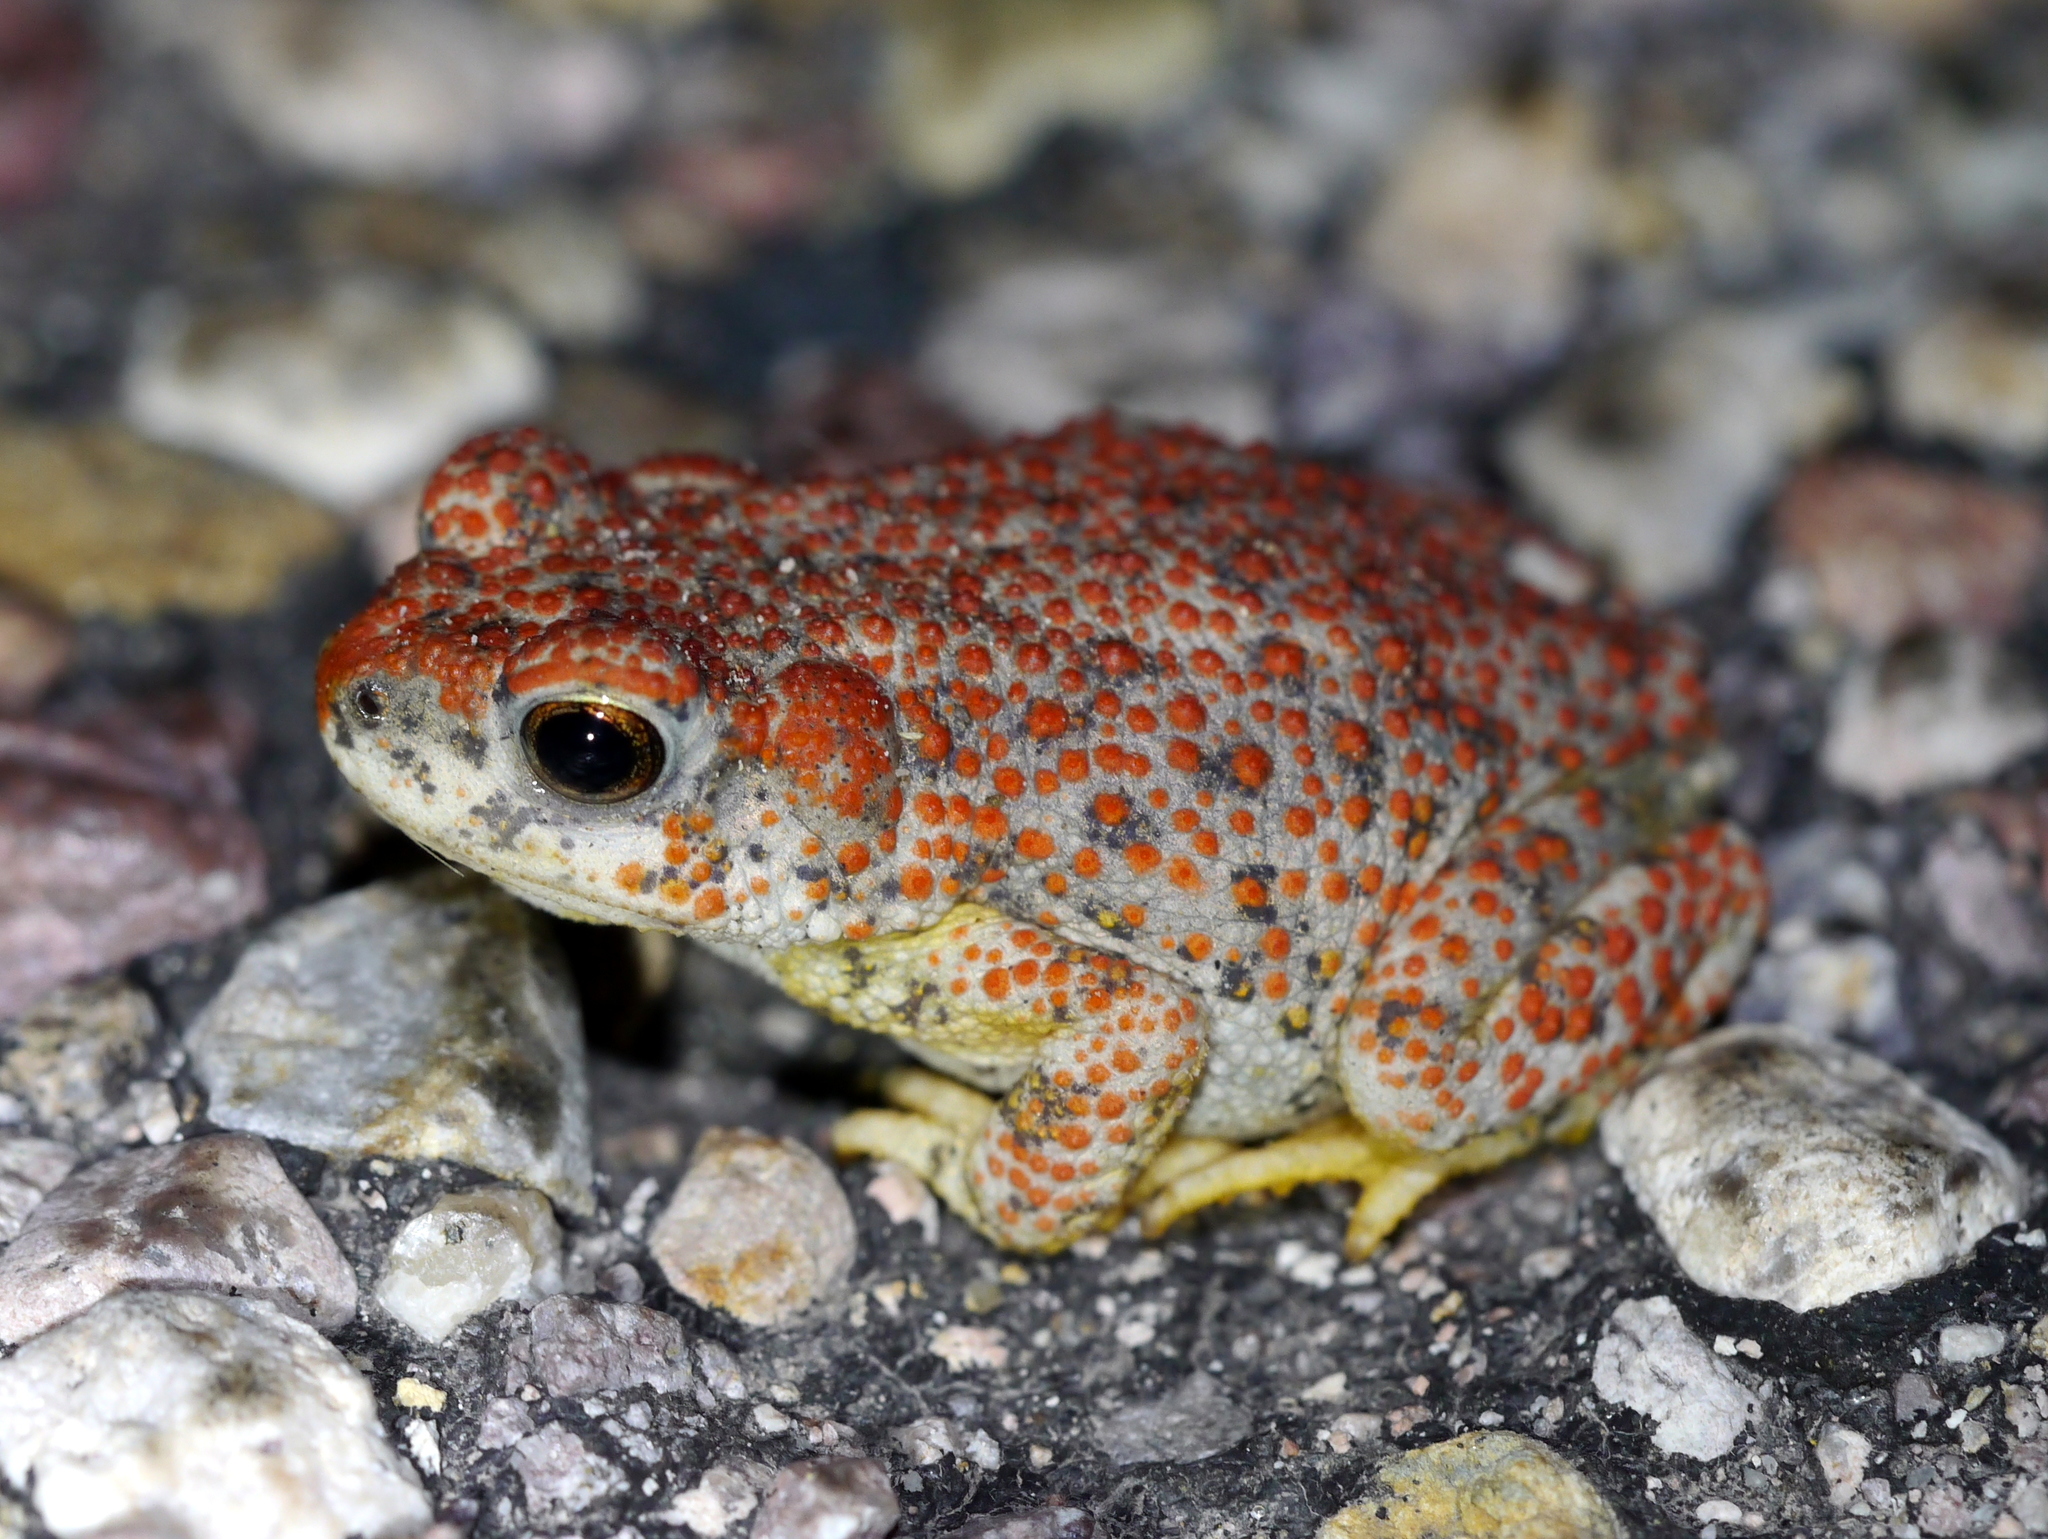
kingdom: Animalia
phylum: Chordata
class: Amphibia
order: Anura
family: Bufonidae
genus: Anaxyrus
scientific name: Anaxyrus punctatus
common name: Red-spotted toad
